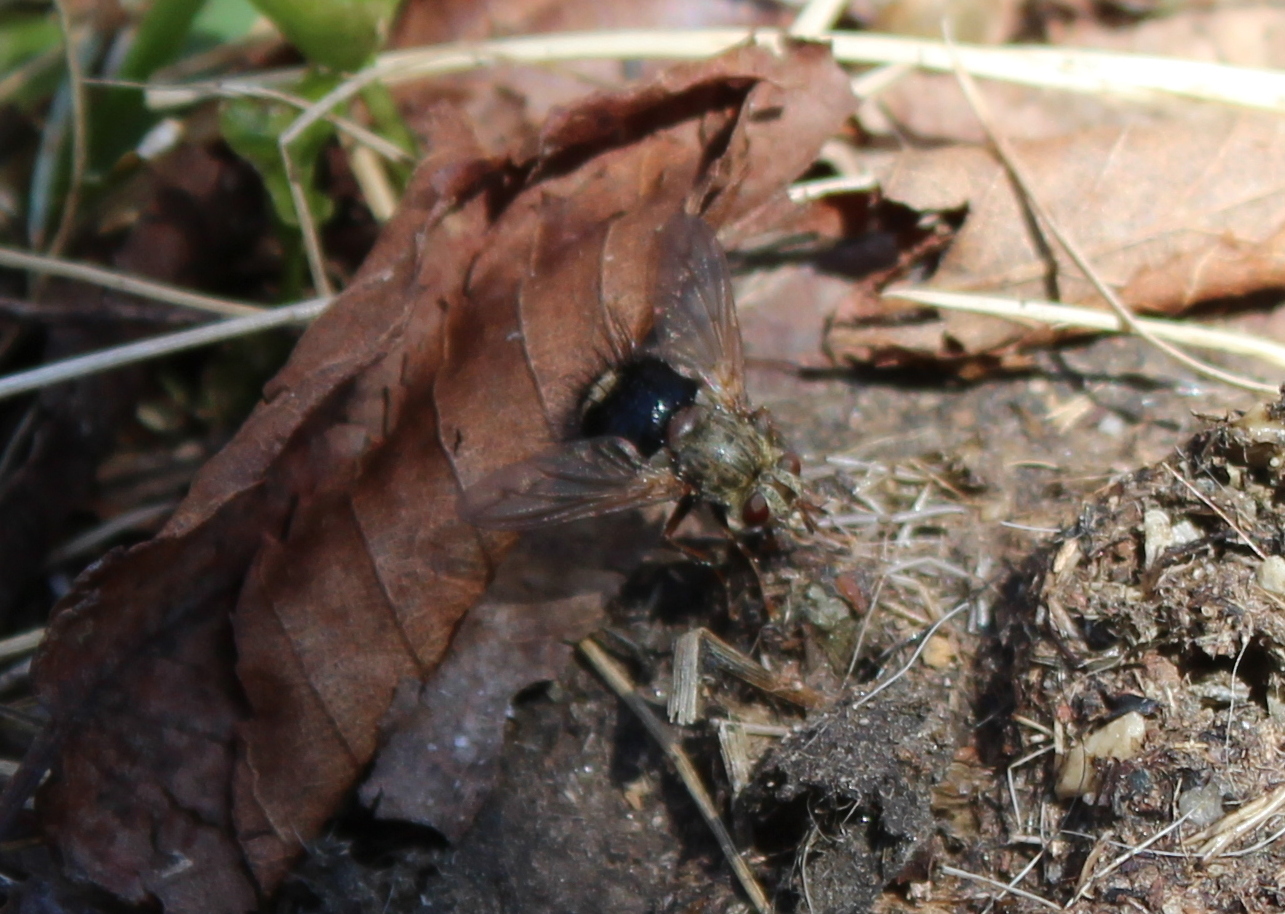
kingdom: Animalia
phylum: Arthropoda
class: Insecta
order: Diptera
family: Tachinidae
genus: Epalpus
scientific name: Epalpus signifer
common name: Early tachinid fly
